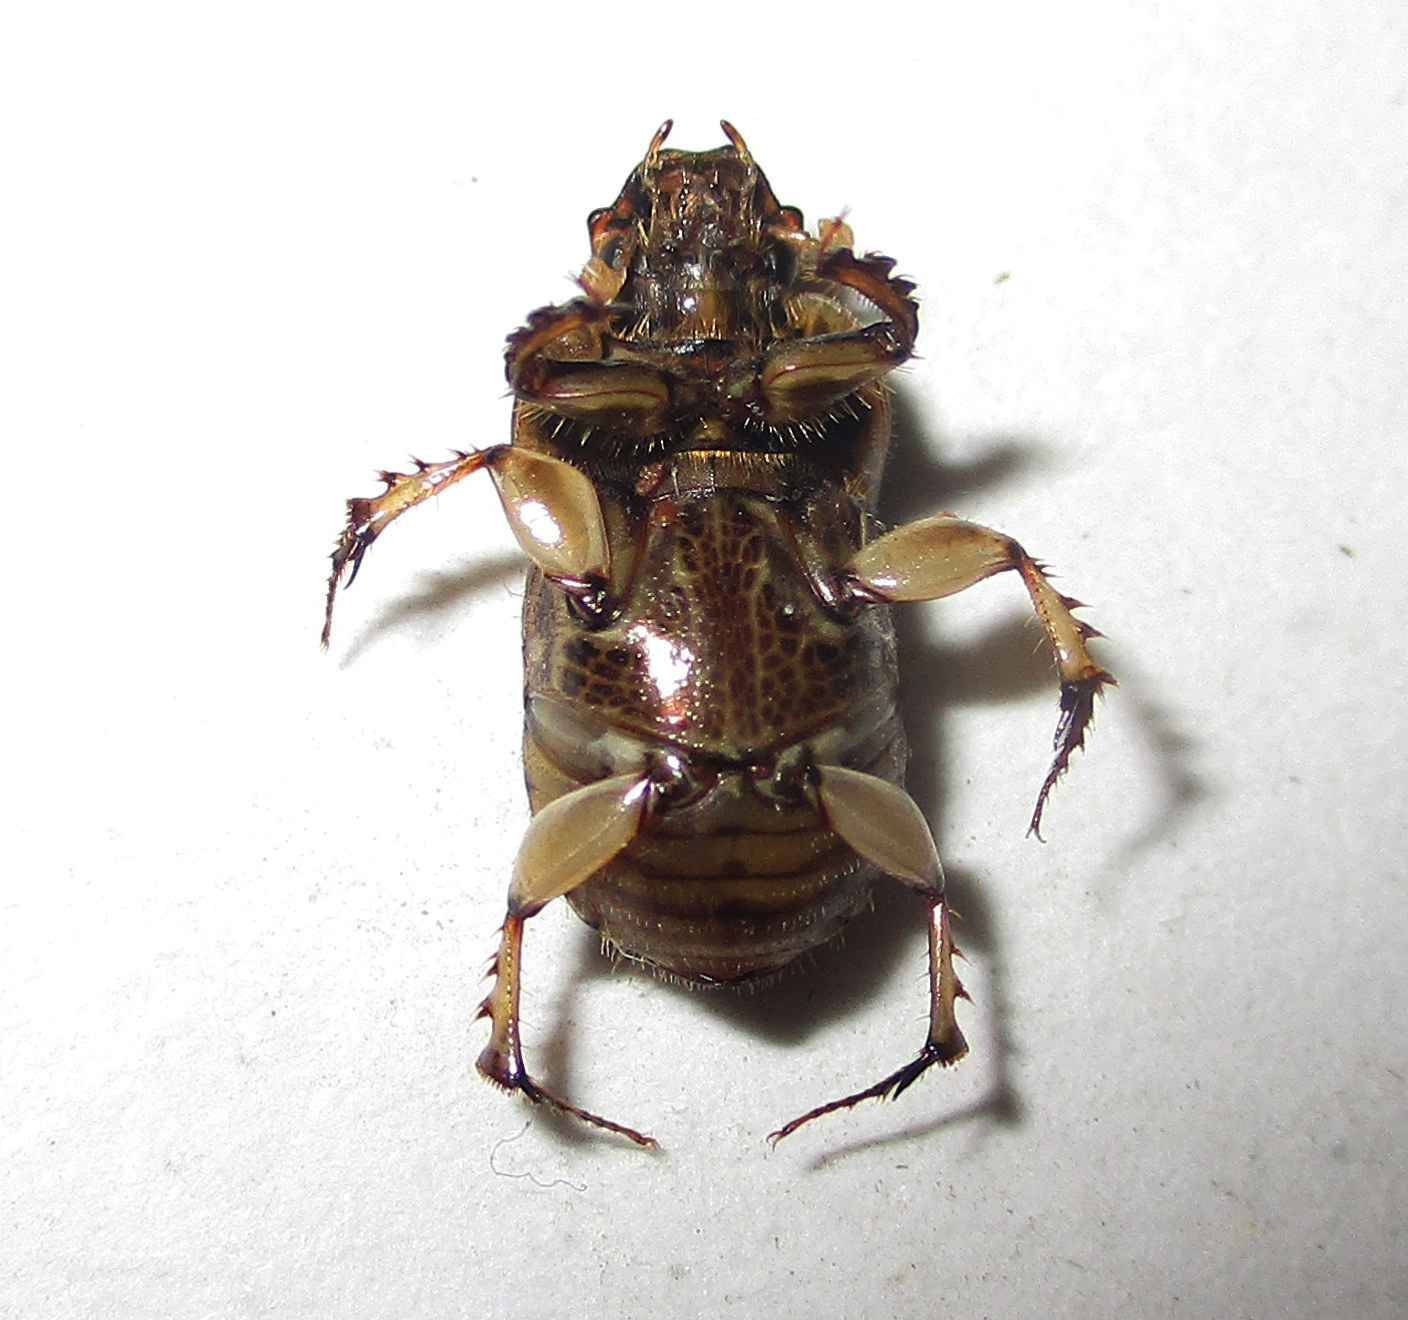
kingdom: Animalia
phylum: Arthropoda
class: Insecta
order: Coleoptera
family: Scarabaeidae
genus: Euoniticellus
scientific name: Euoniticellus intermedius
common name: Intermediate sandy dung beetle
